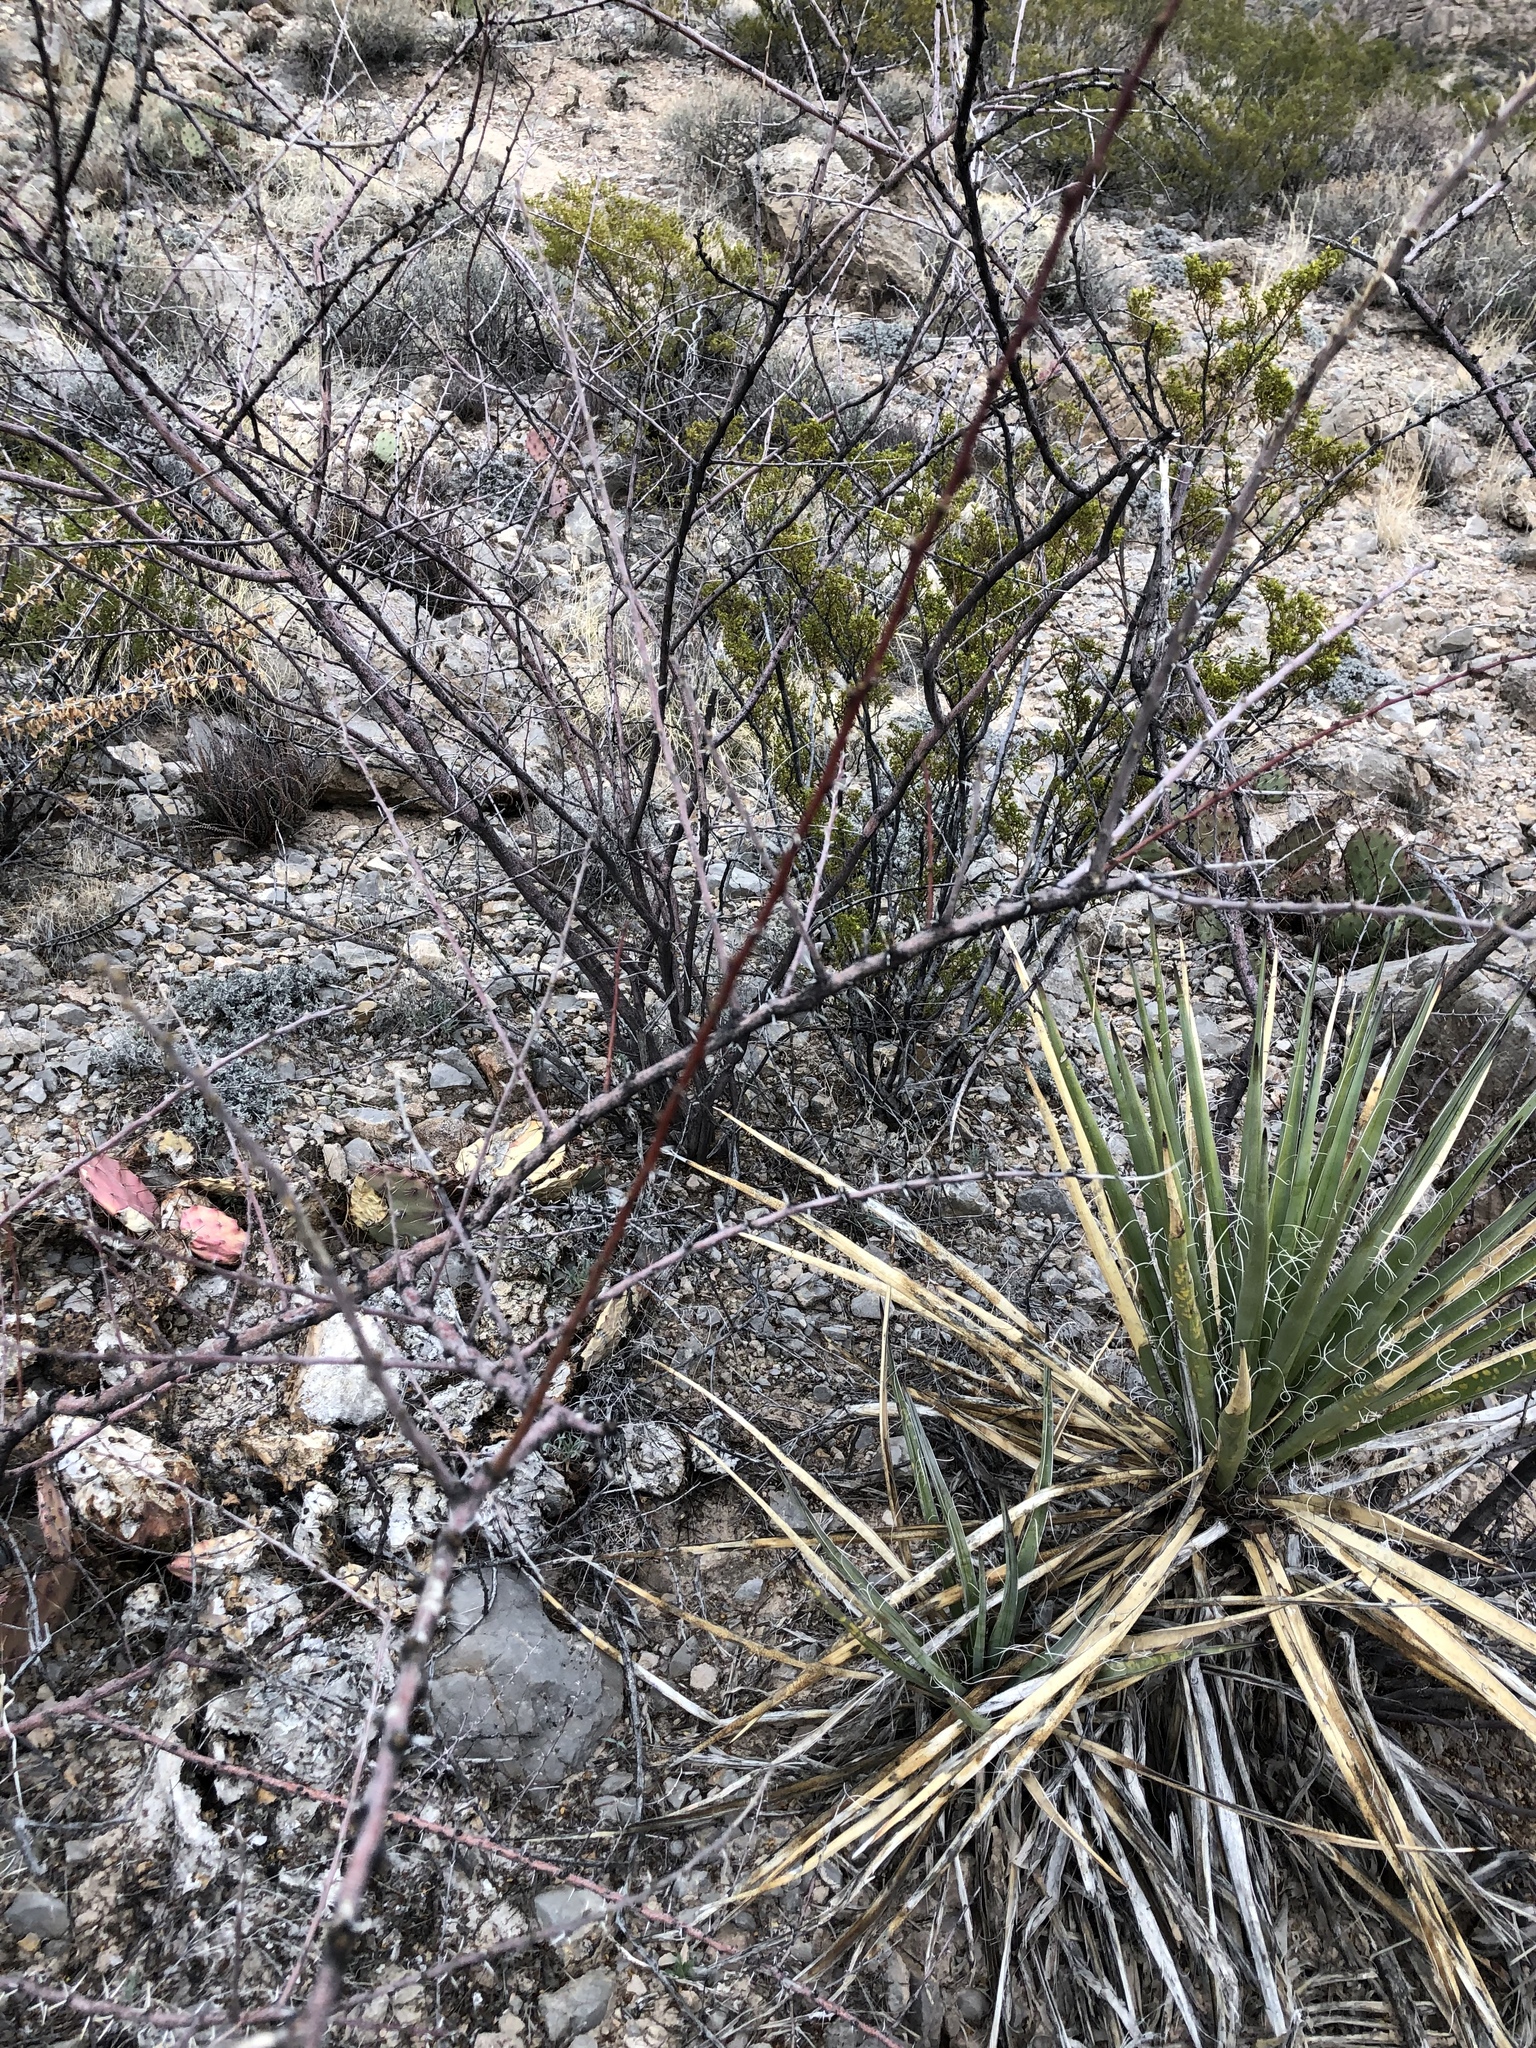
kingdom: Plantae
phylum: Tracheophyta
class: Magnoliopsida
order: Fabales
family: Fabaceae
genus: Vachellia
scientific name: Vachellia constricta
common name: Mescat acacia
